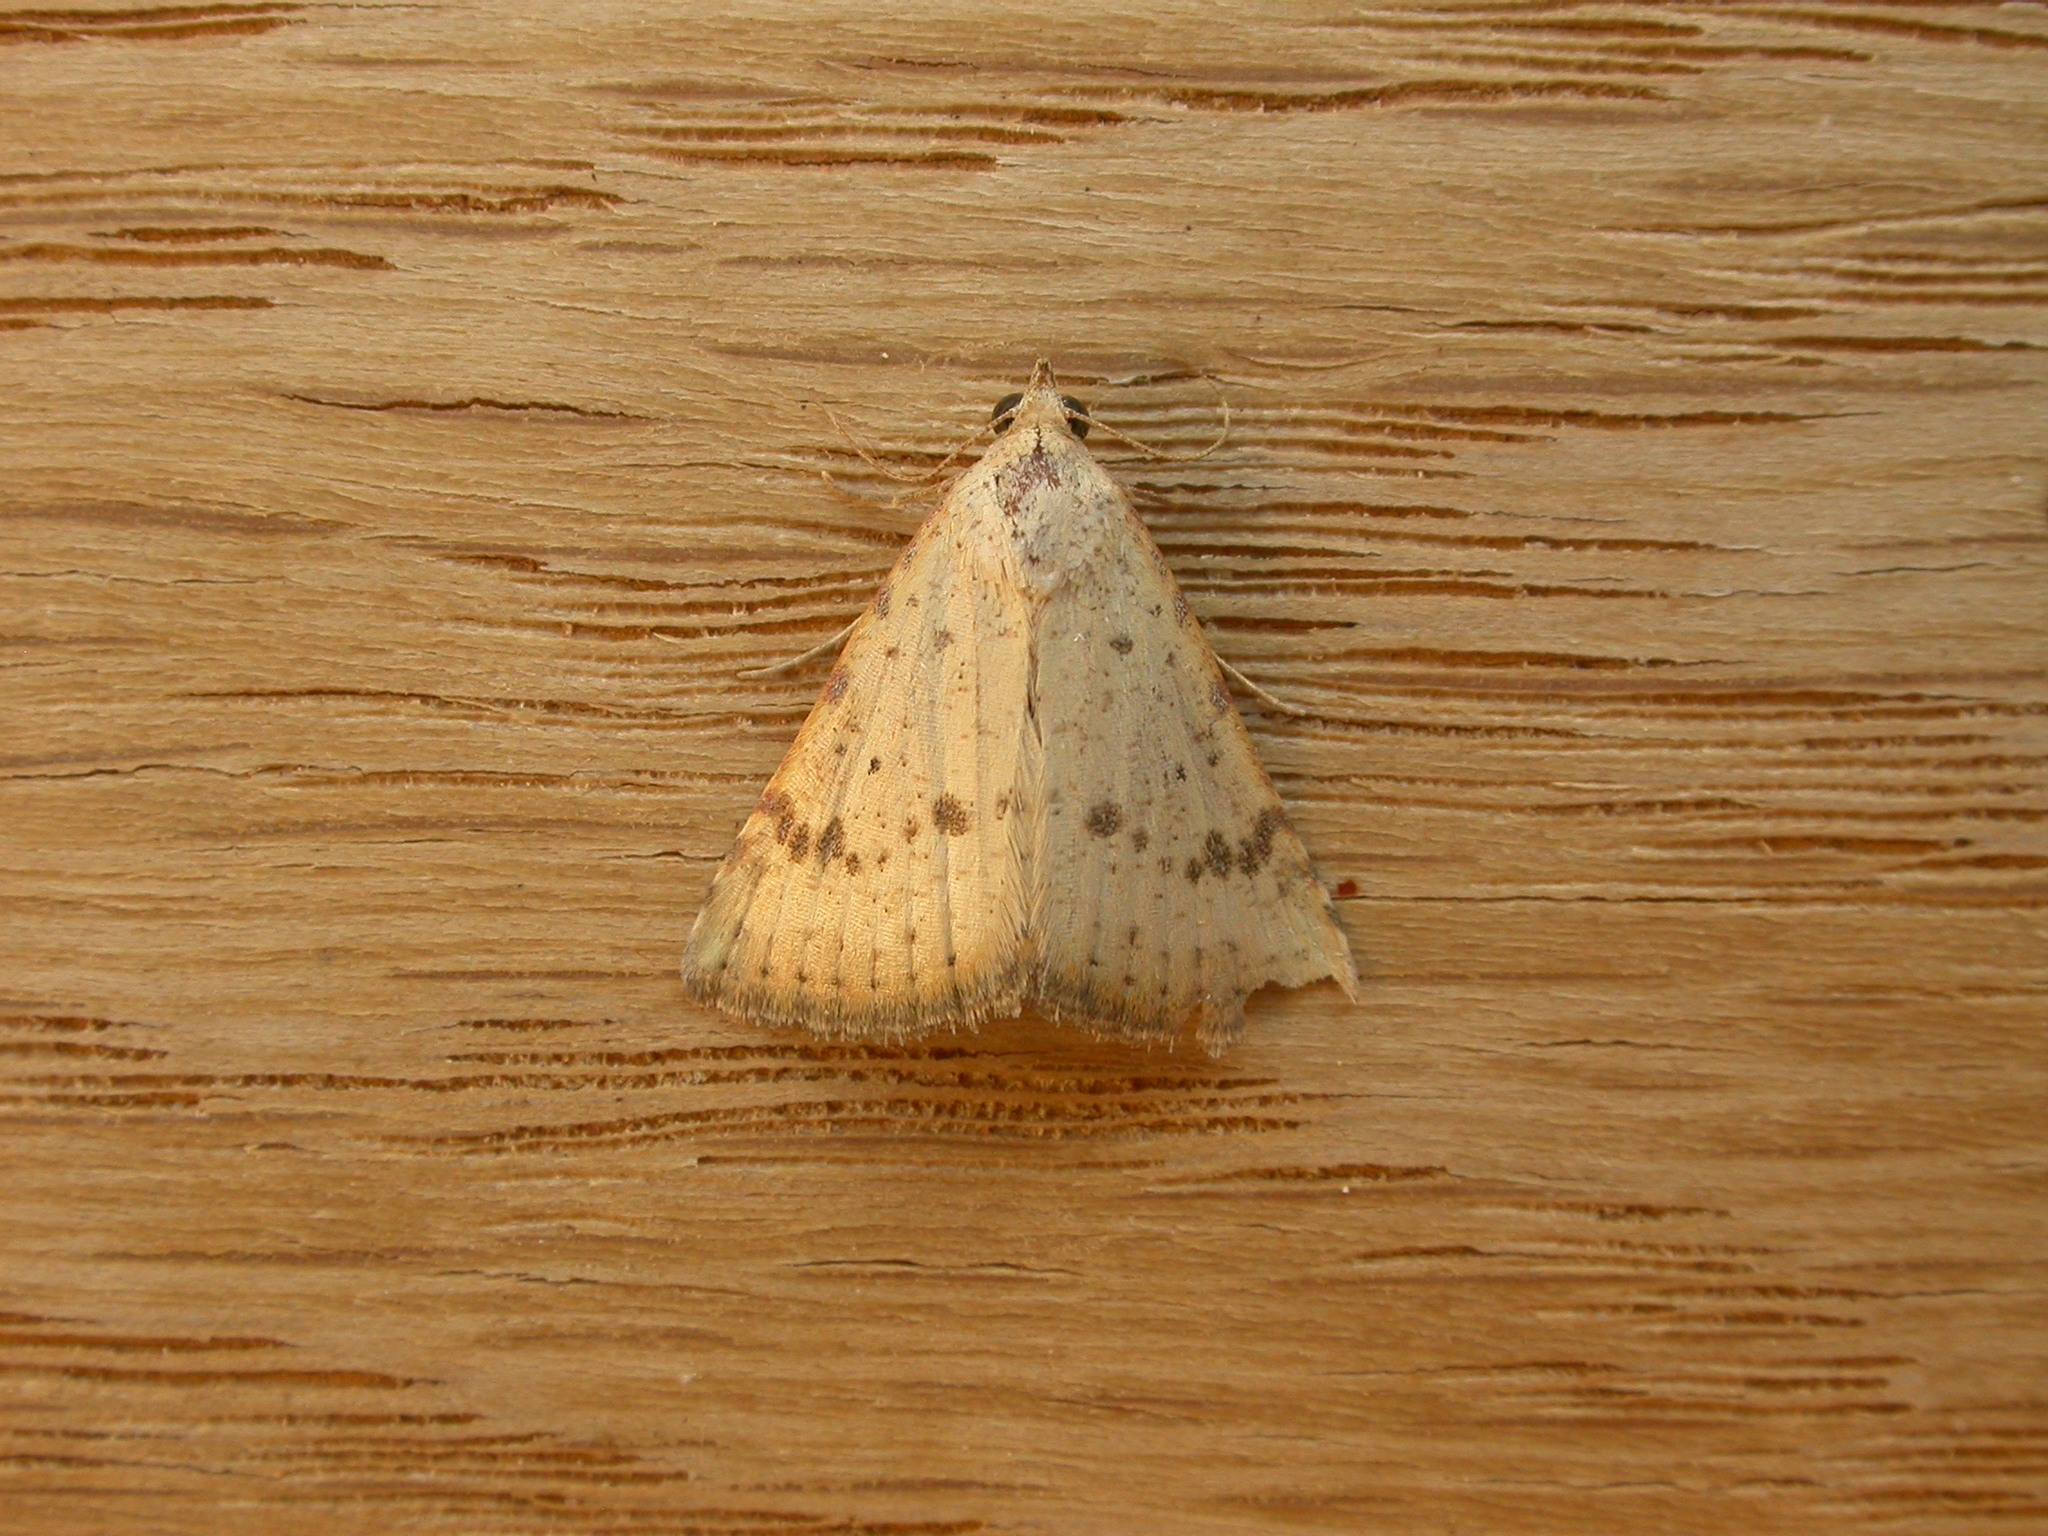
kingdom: Animalia
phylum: Arthropoda
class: Insecta
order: Lepidoptera
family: Erebidae
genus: Colobochyla
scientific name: Colobochyla
